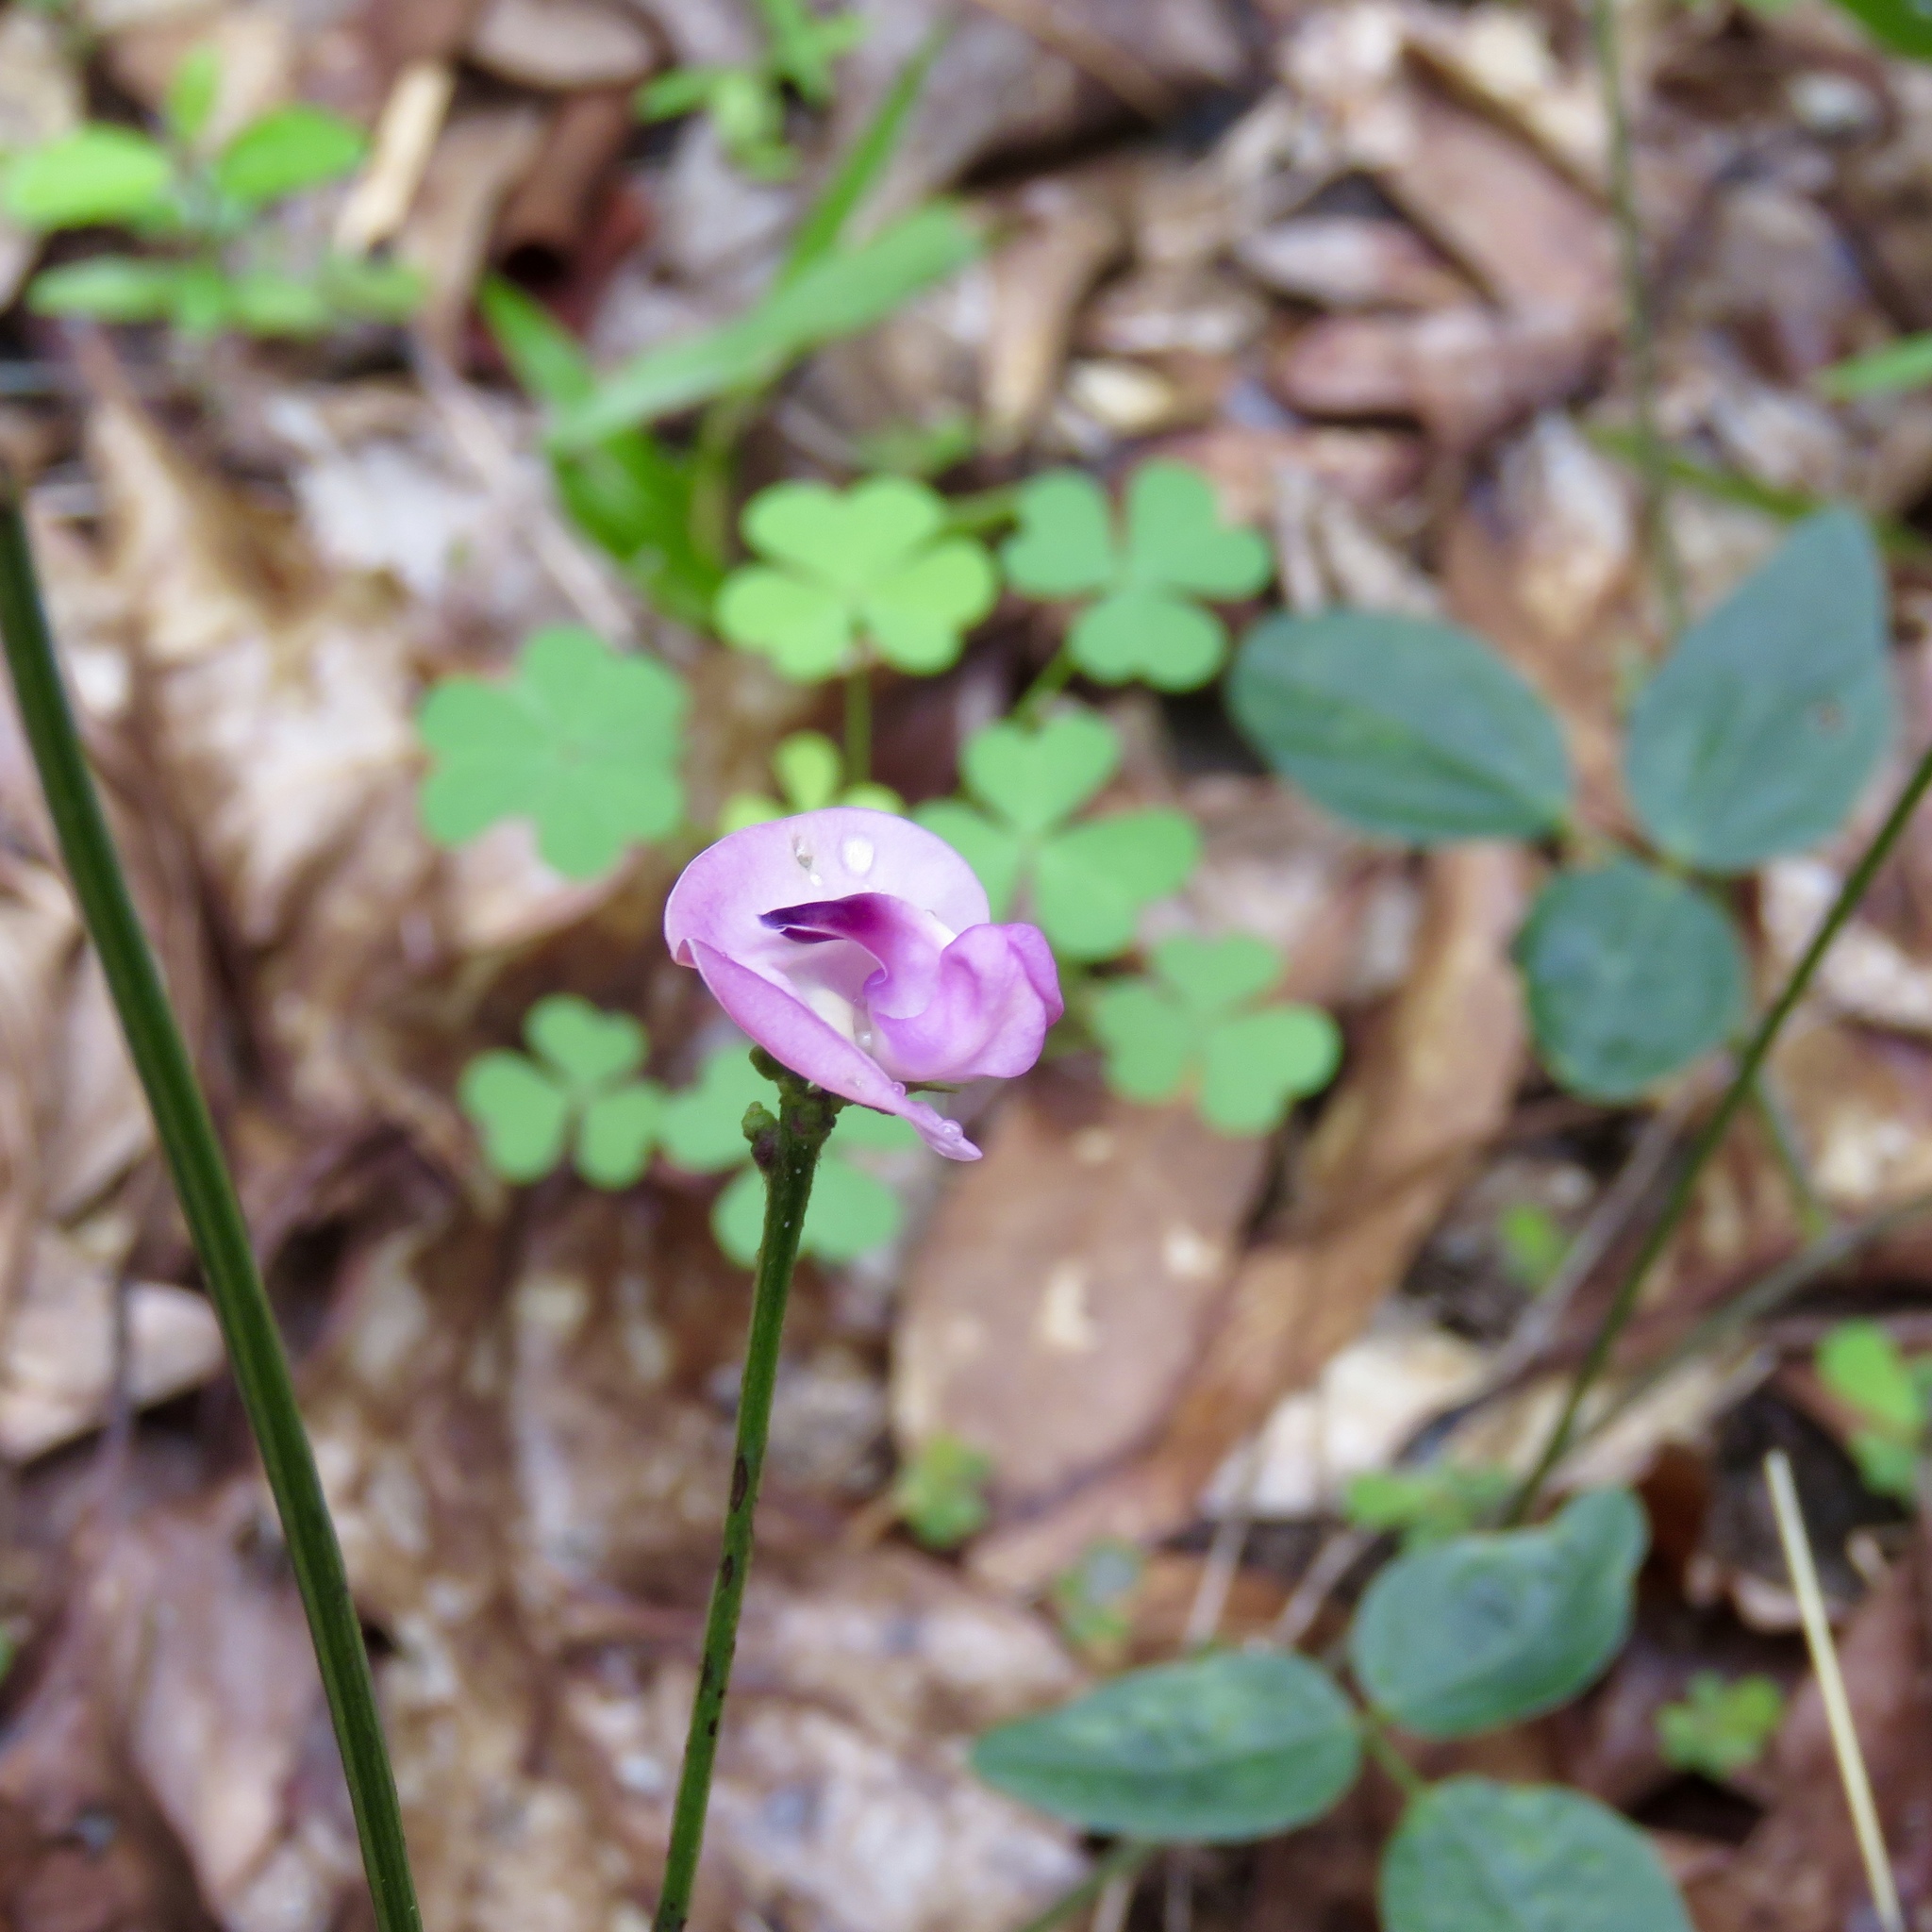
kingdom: Plantae
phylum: Tracheophyta
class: Magnoliopsida
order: Fabales
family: Fabaceae
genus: Strophostyles
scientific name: Strophostyles umbellata
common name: Perennial wild bean
